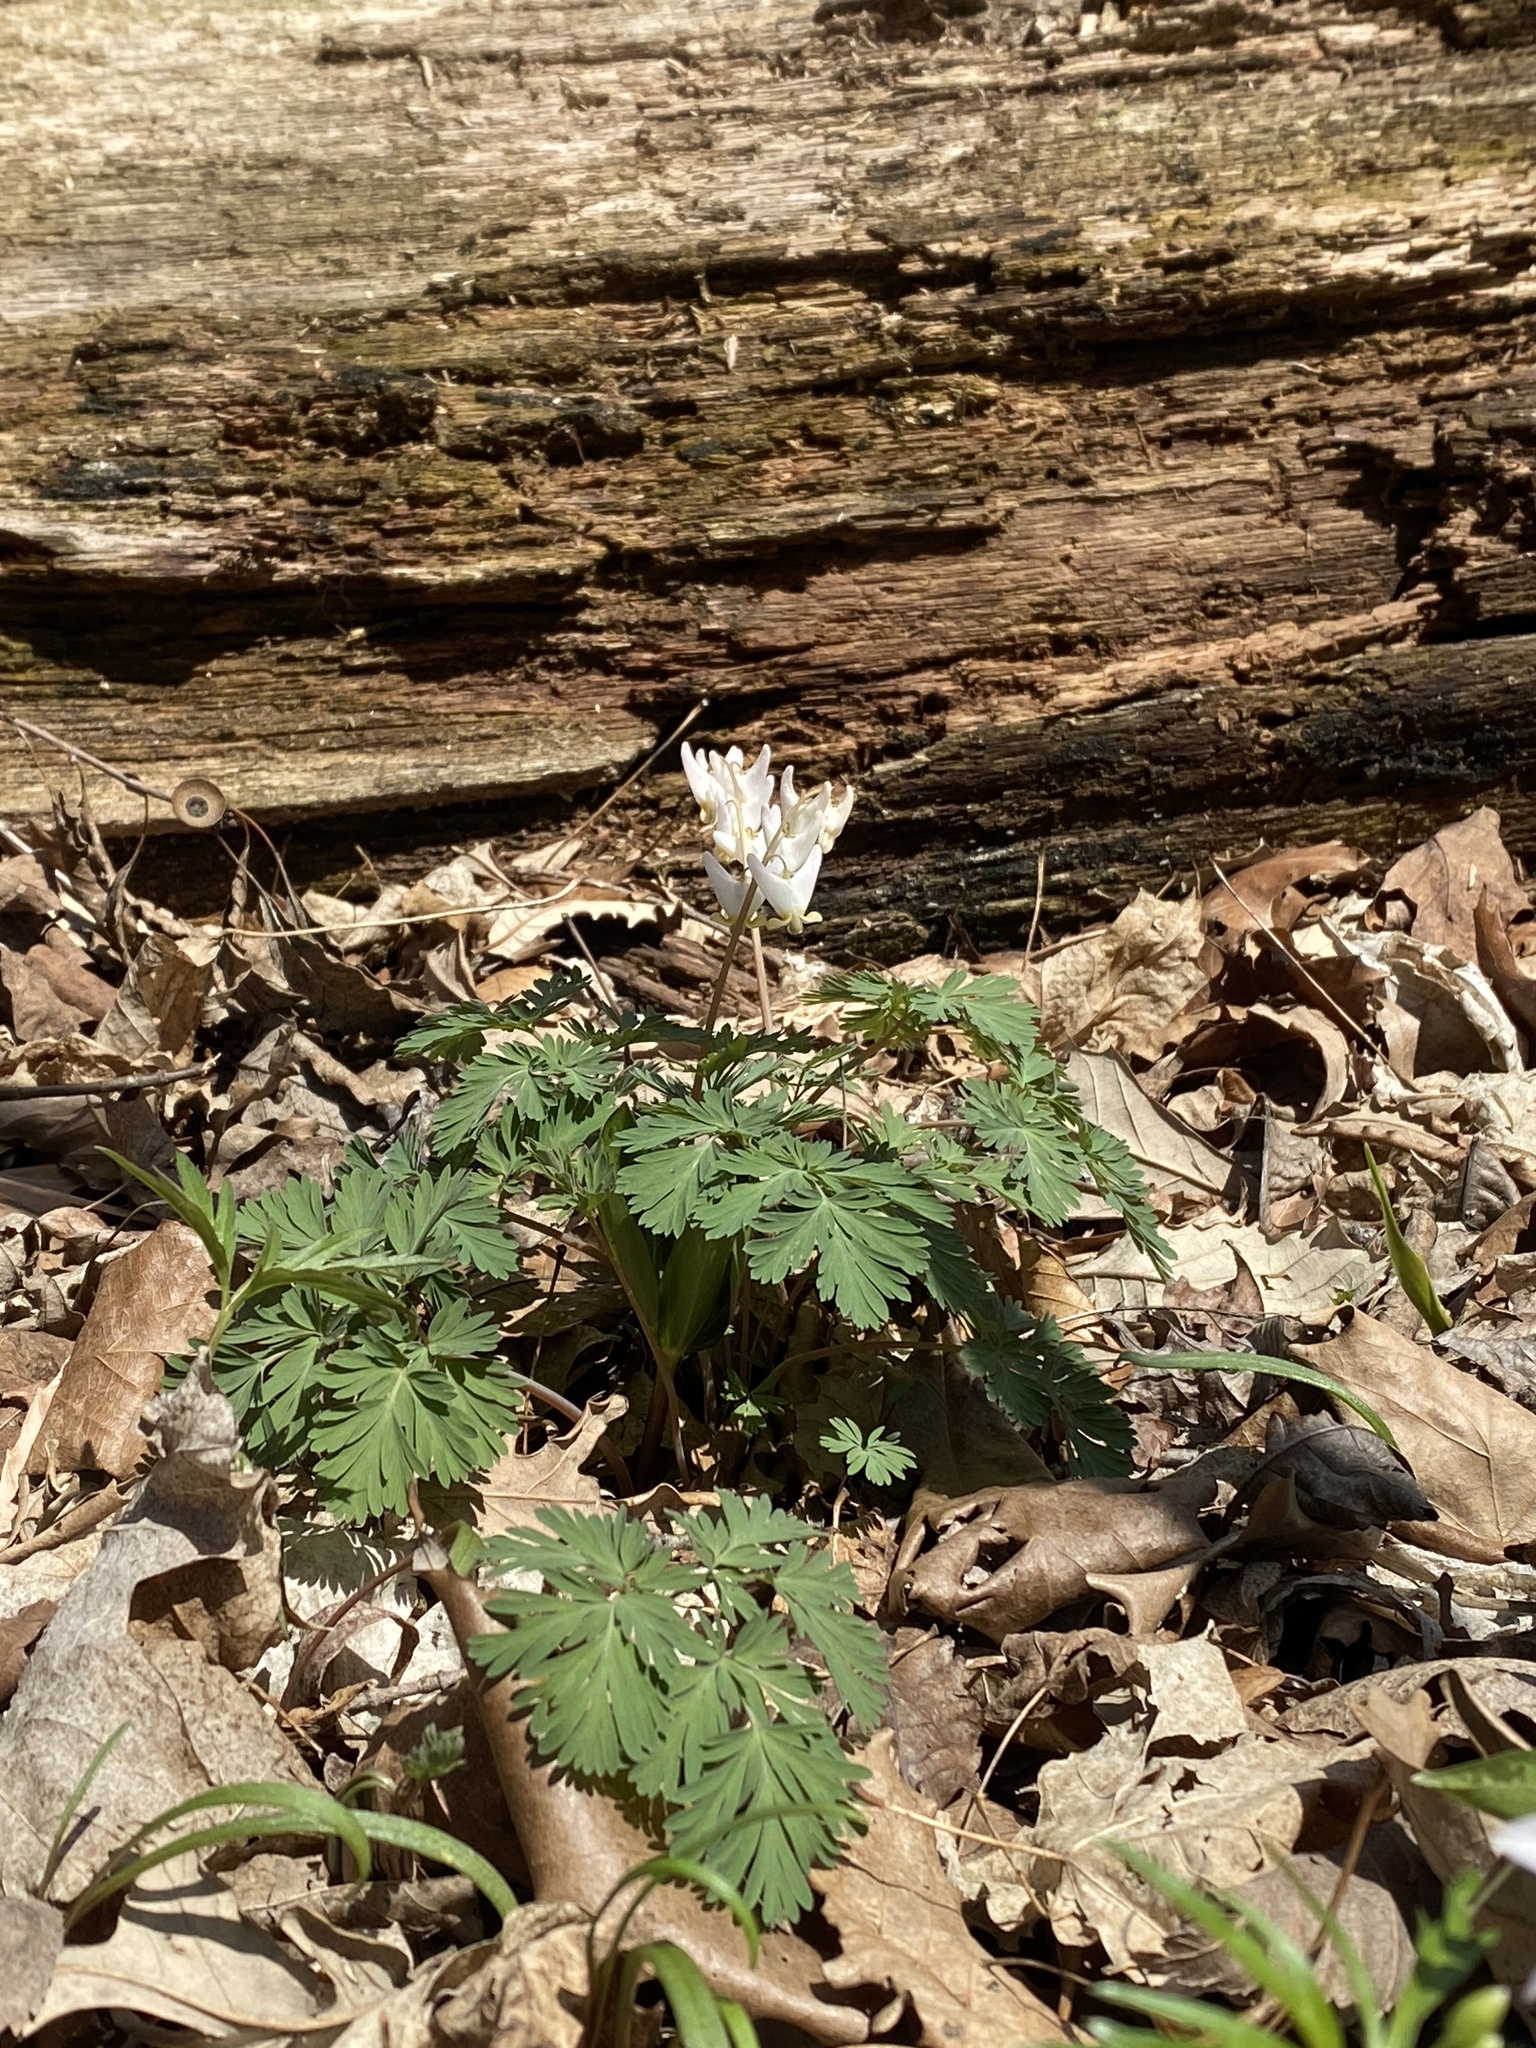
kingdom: Plantae
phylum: Tracheophyta
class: Magnoliopsida
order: Ranunculales
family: Papaveraceae
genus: Dicentra
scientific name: Dicentra cucullaria
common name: Dutchman's breeches
